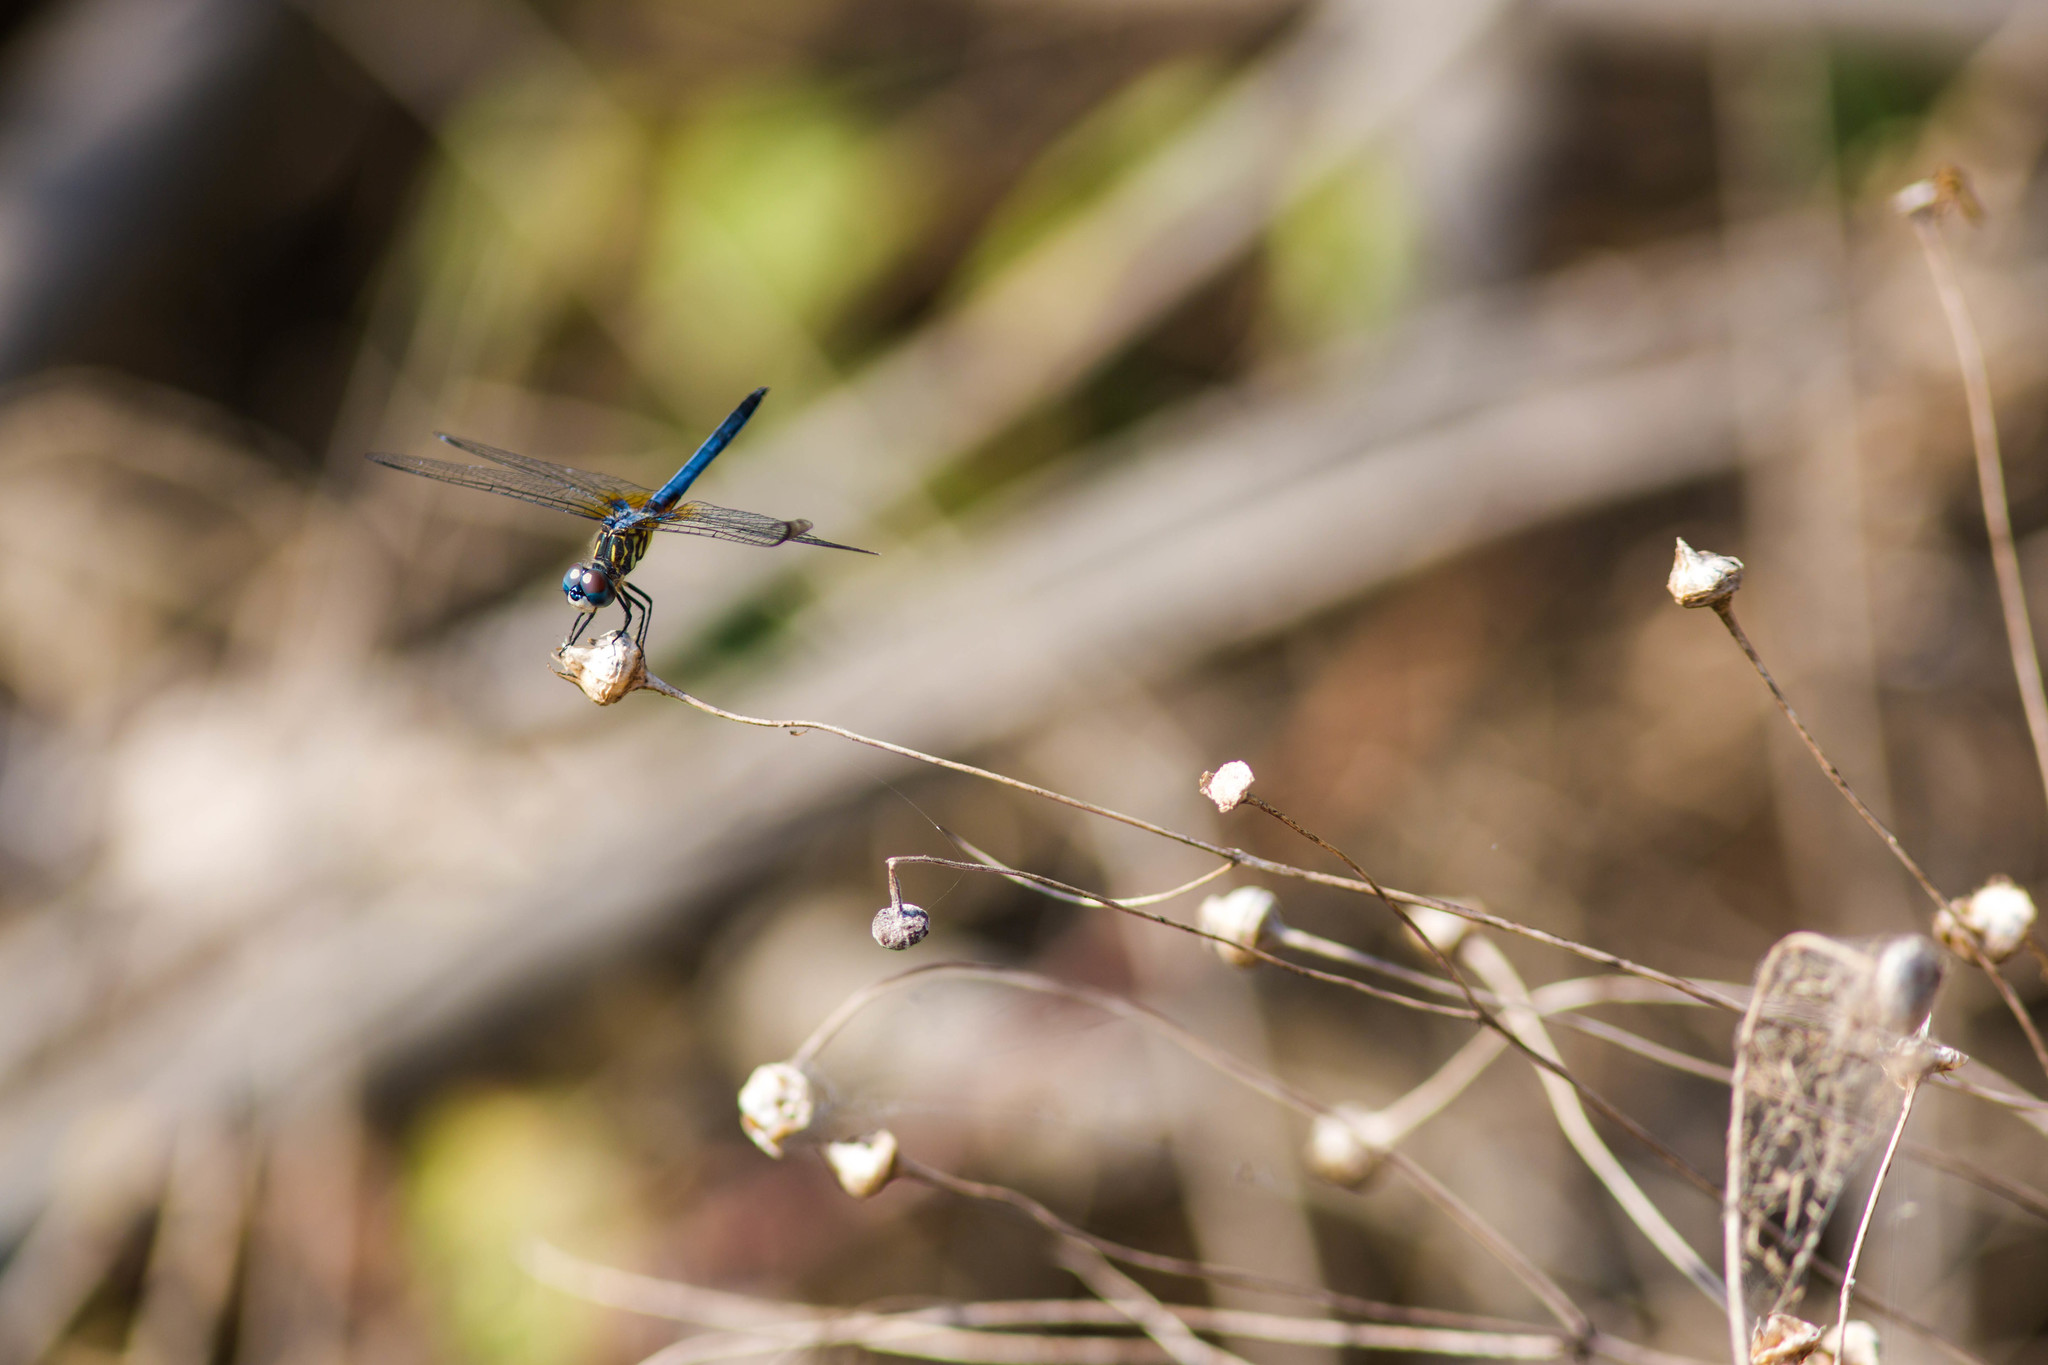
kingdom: Animalia
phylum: Arthropoda
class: Insecta
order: Odonata
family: Libellulidae
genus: Pachydiplax
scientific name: Pachydiplax longipennis
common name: Blue dasher
